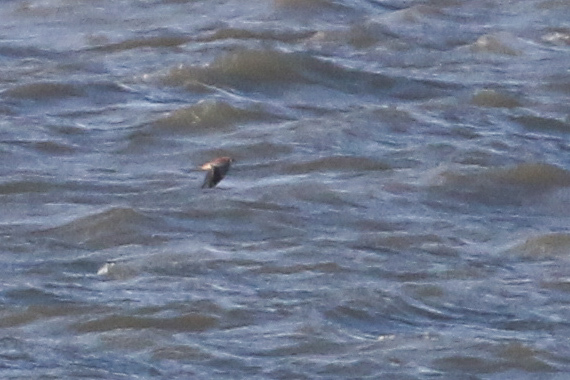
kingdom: Animalia
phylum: Chordata
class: Aves
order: Falconiformes
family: Falconidae
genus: Falco
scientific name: Falco sparverius
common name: American kestrel
